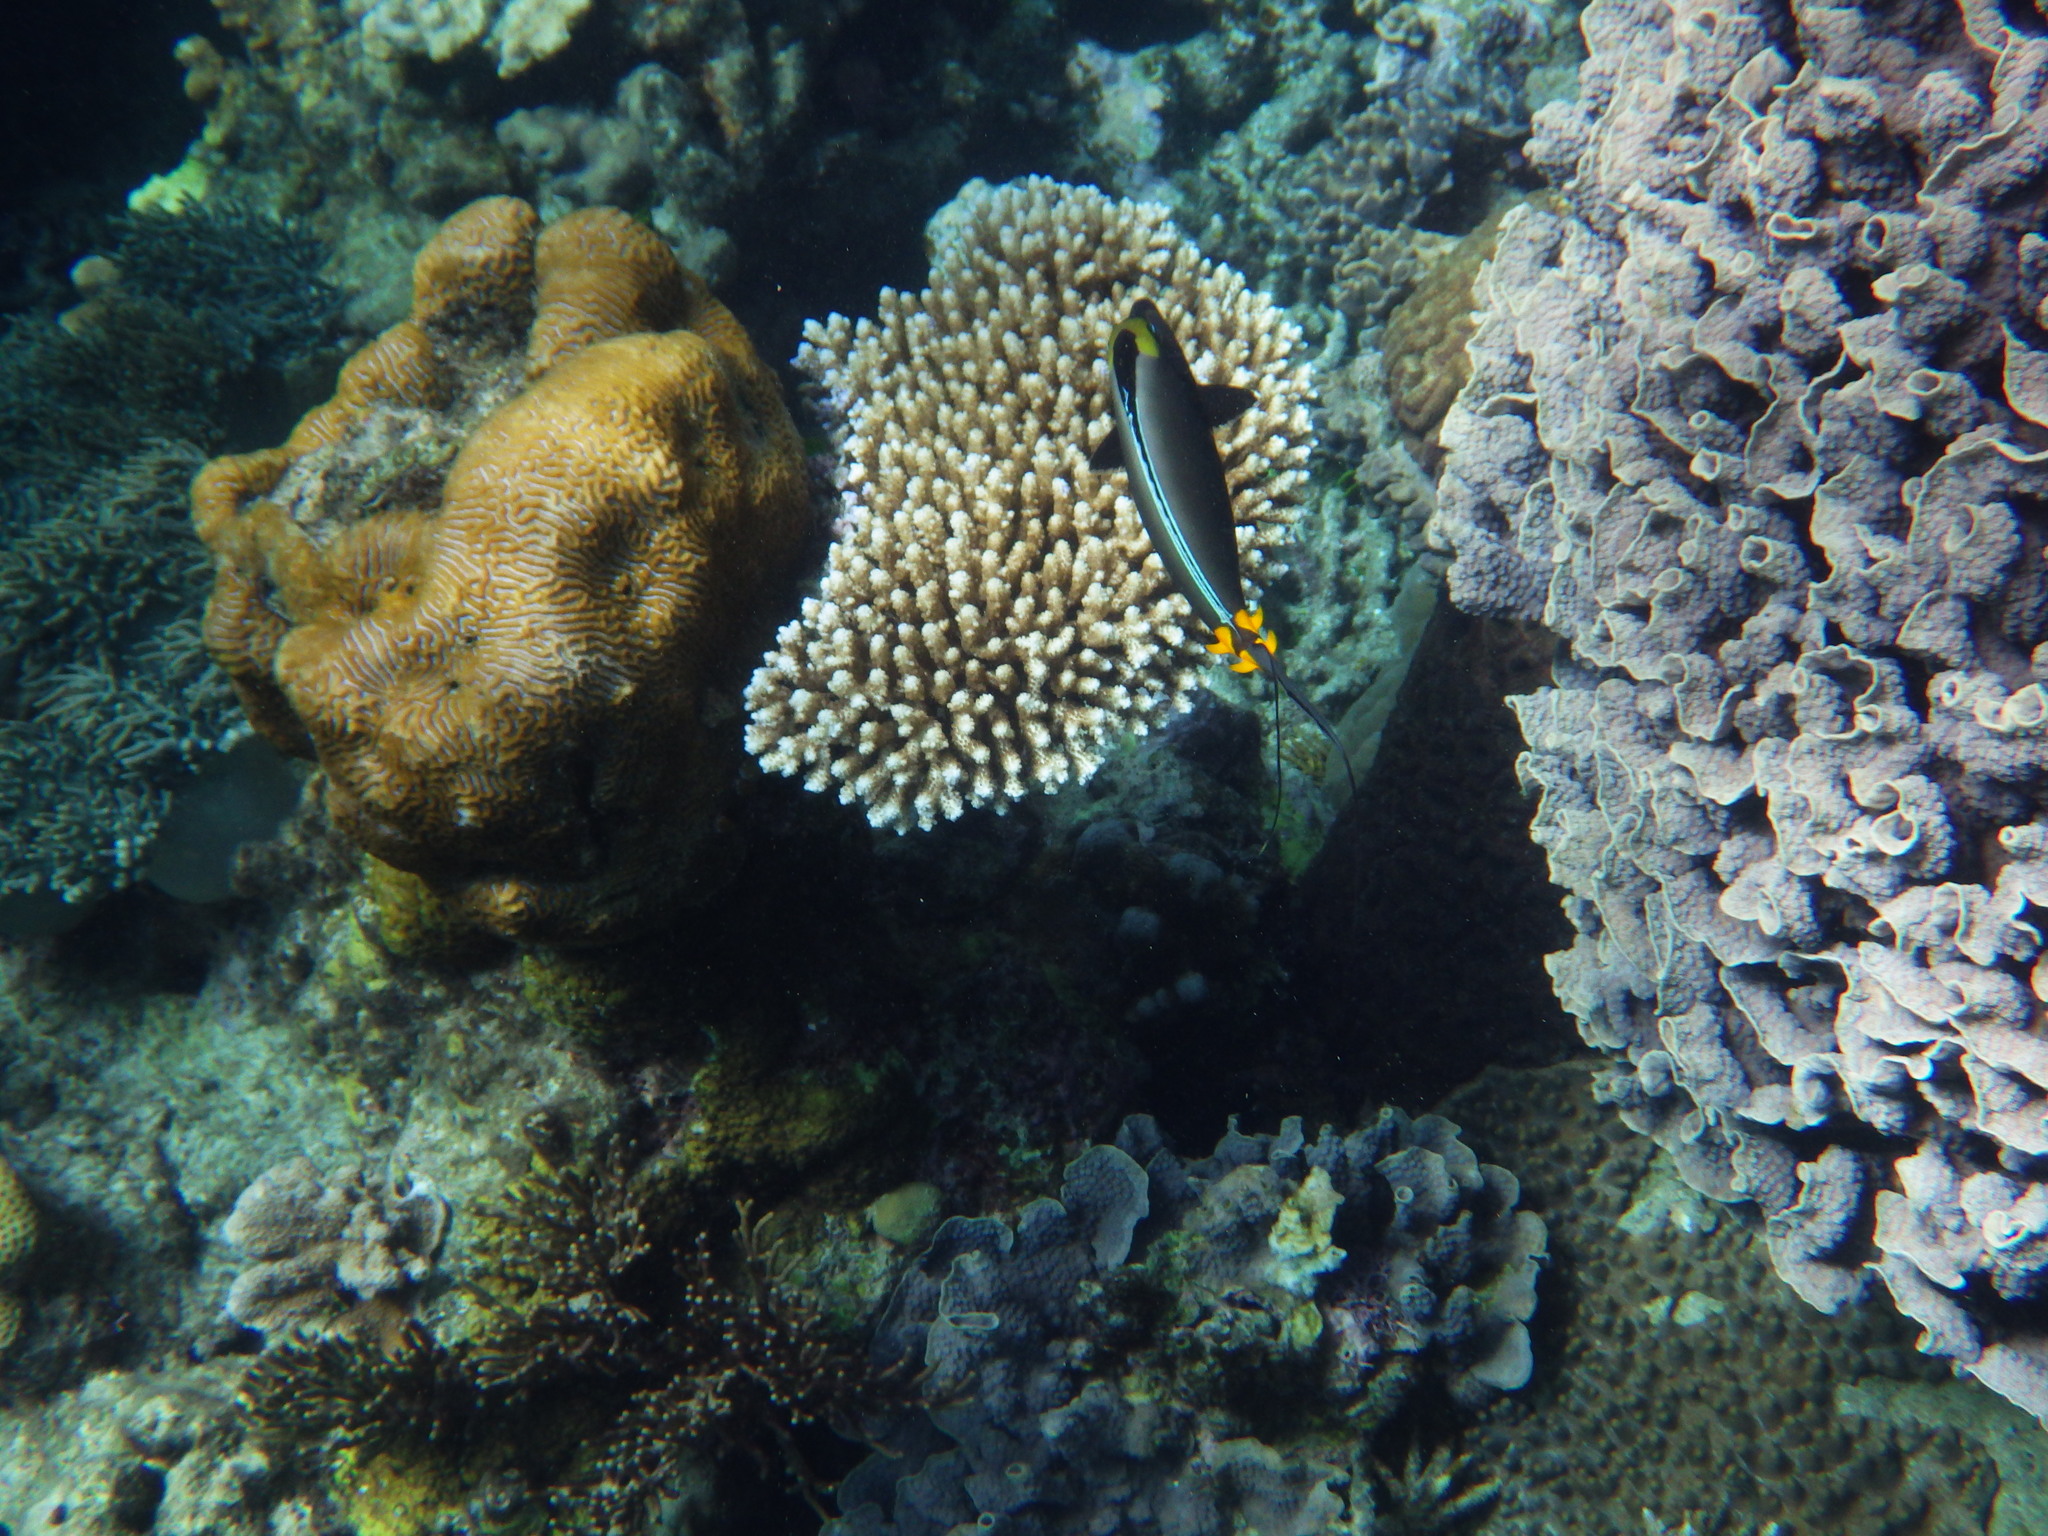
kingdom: Animalia
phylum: Chordata
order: Perciformes
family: Acanthuridae
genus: Naso
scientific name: Naso lituratus
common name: Orangespine unicornfish
